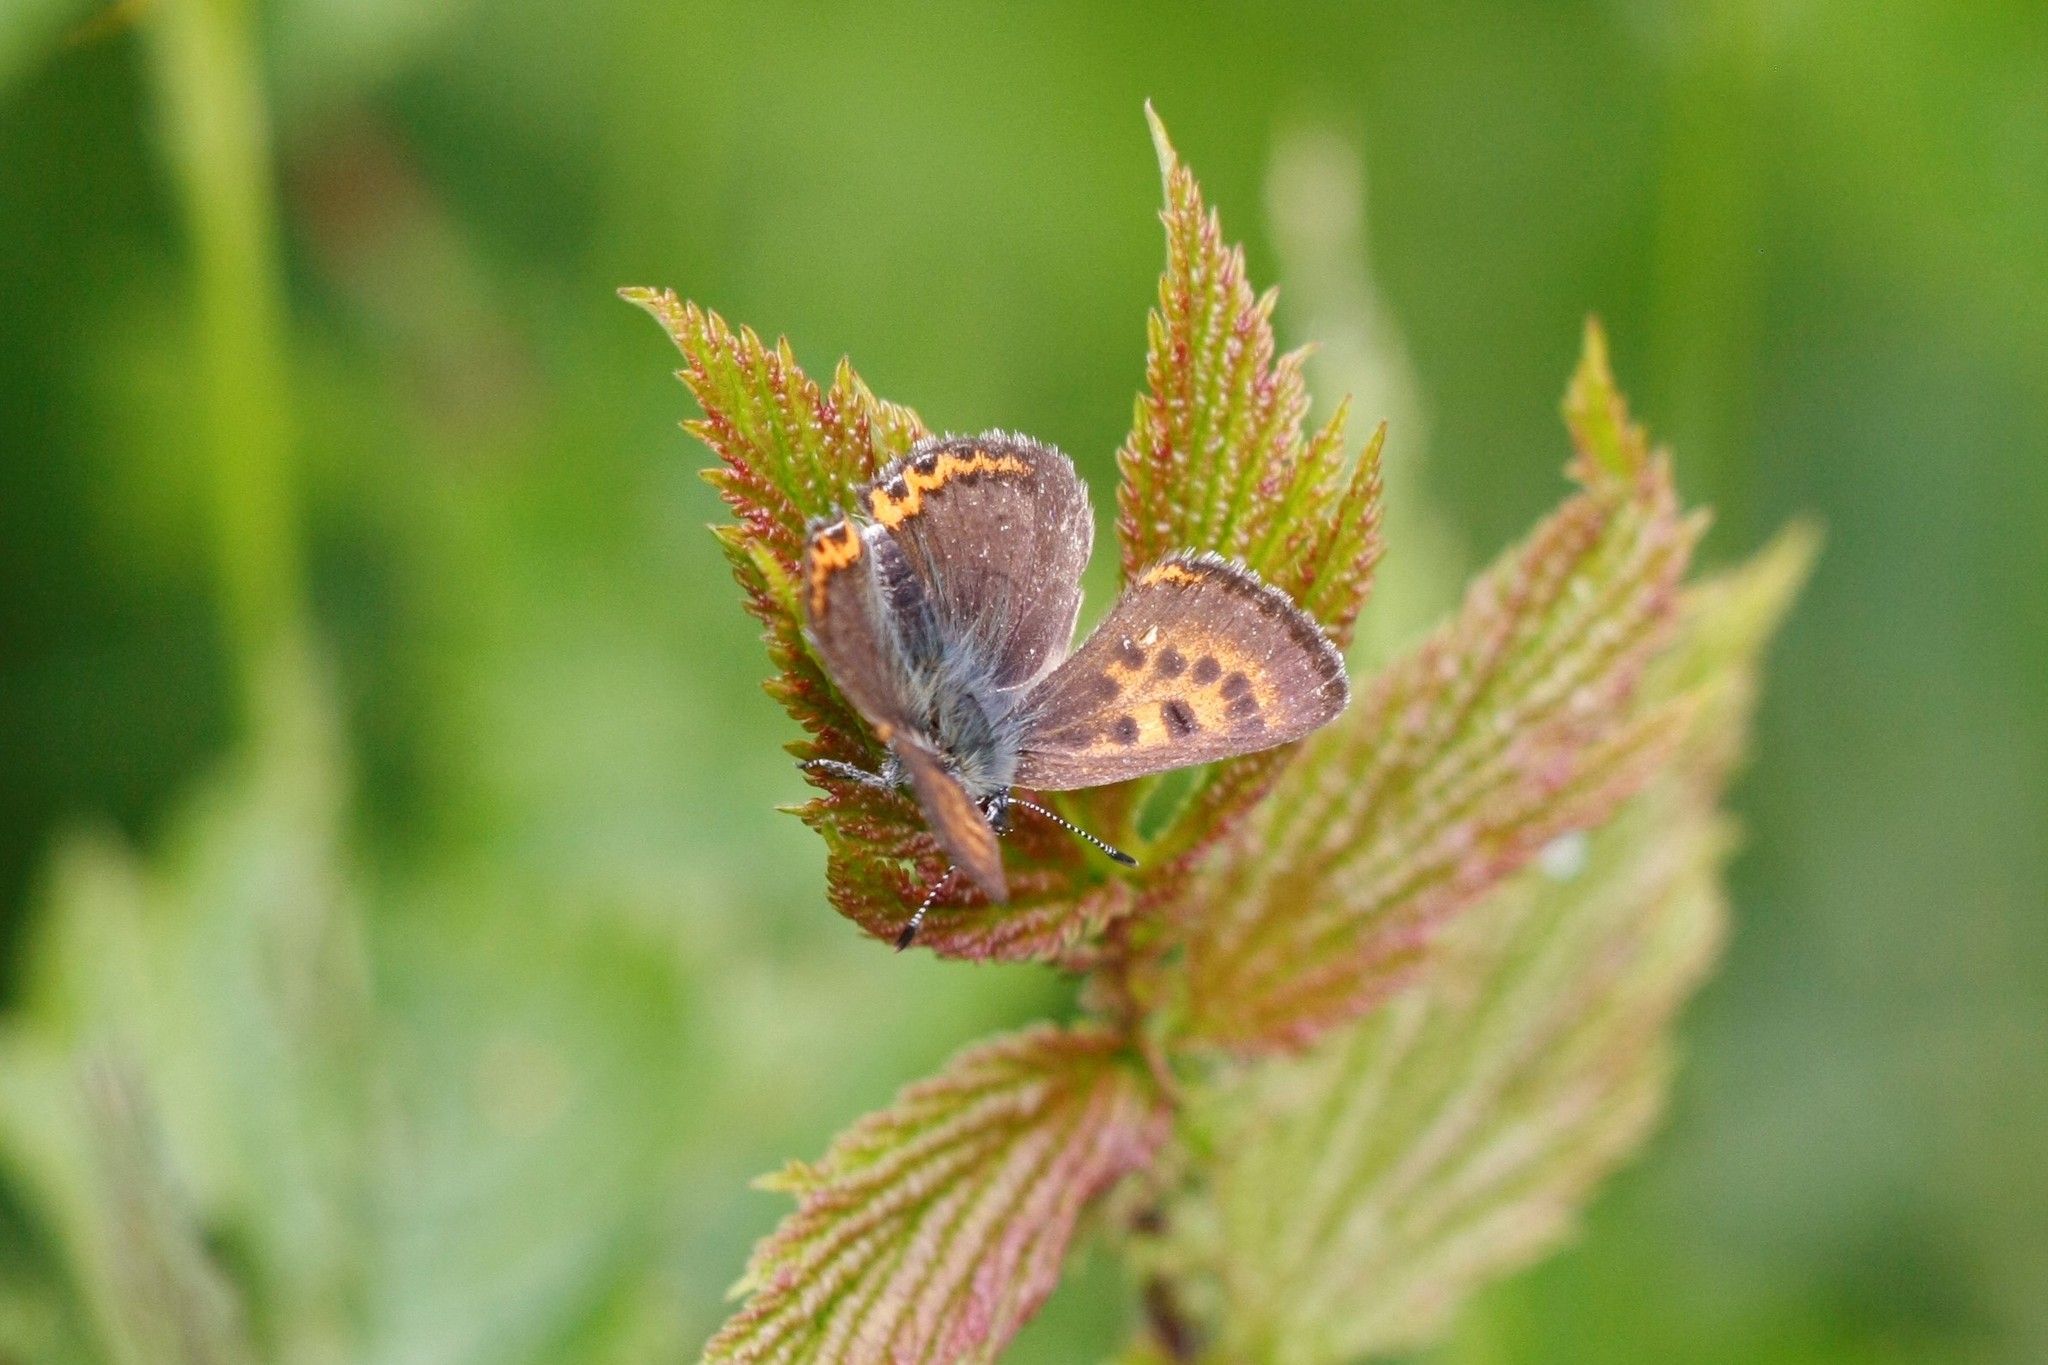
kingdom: Animalia
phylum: Arthropoda
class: Insecta
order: Lepidoptera
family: Lycaenidae
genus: Helleia
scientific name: Helleia helle
